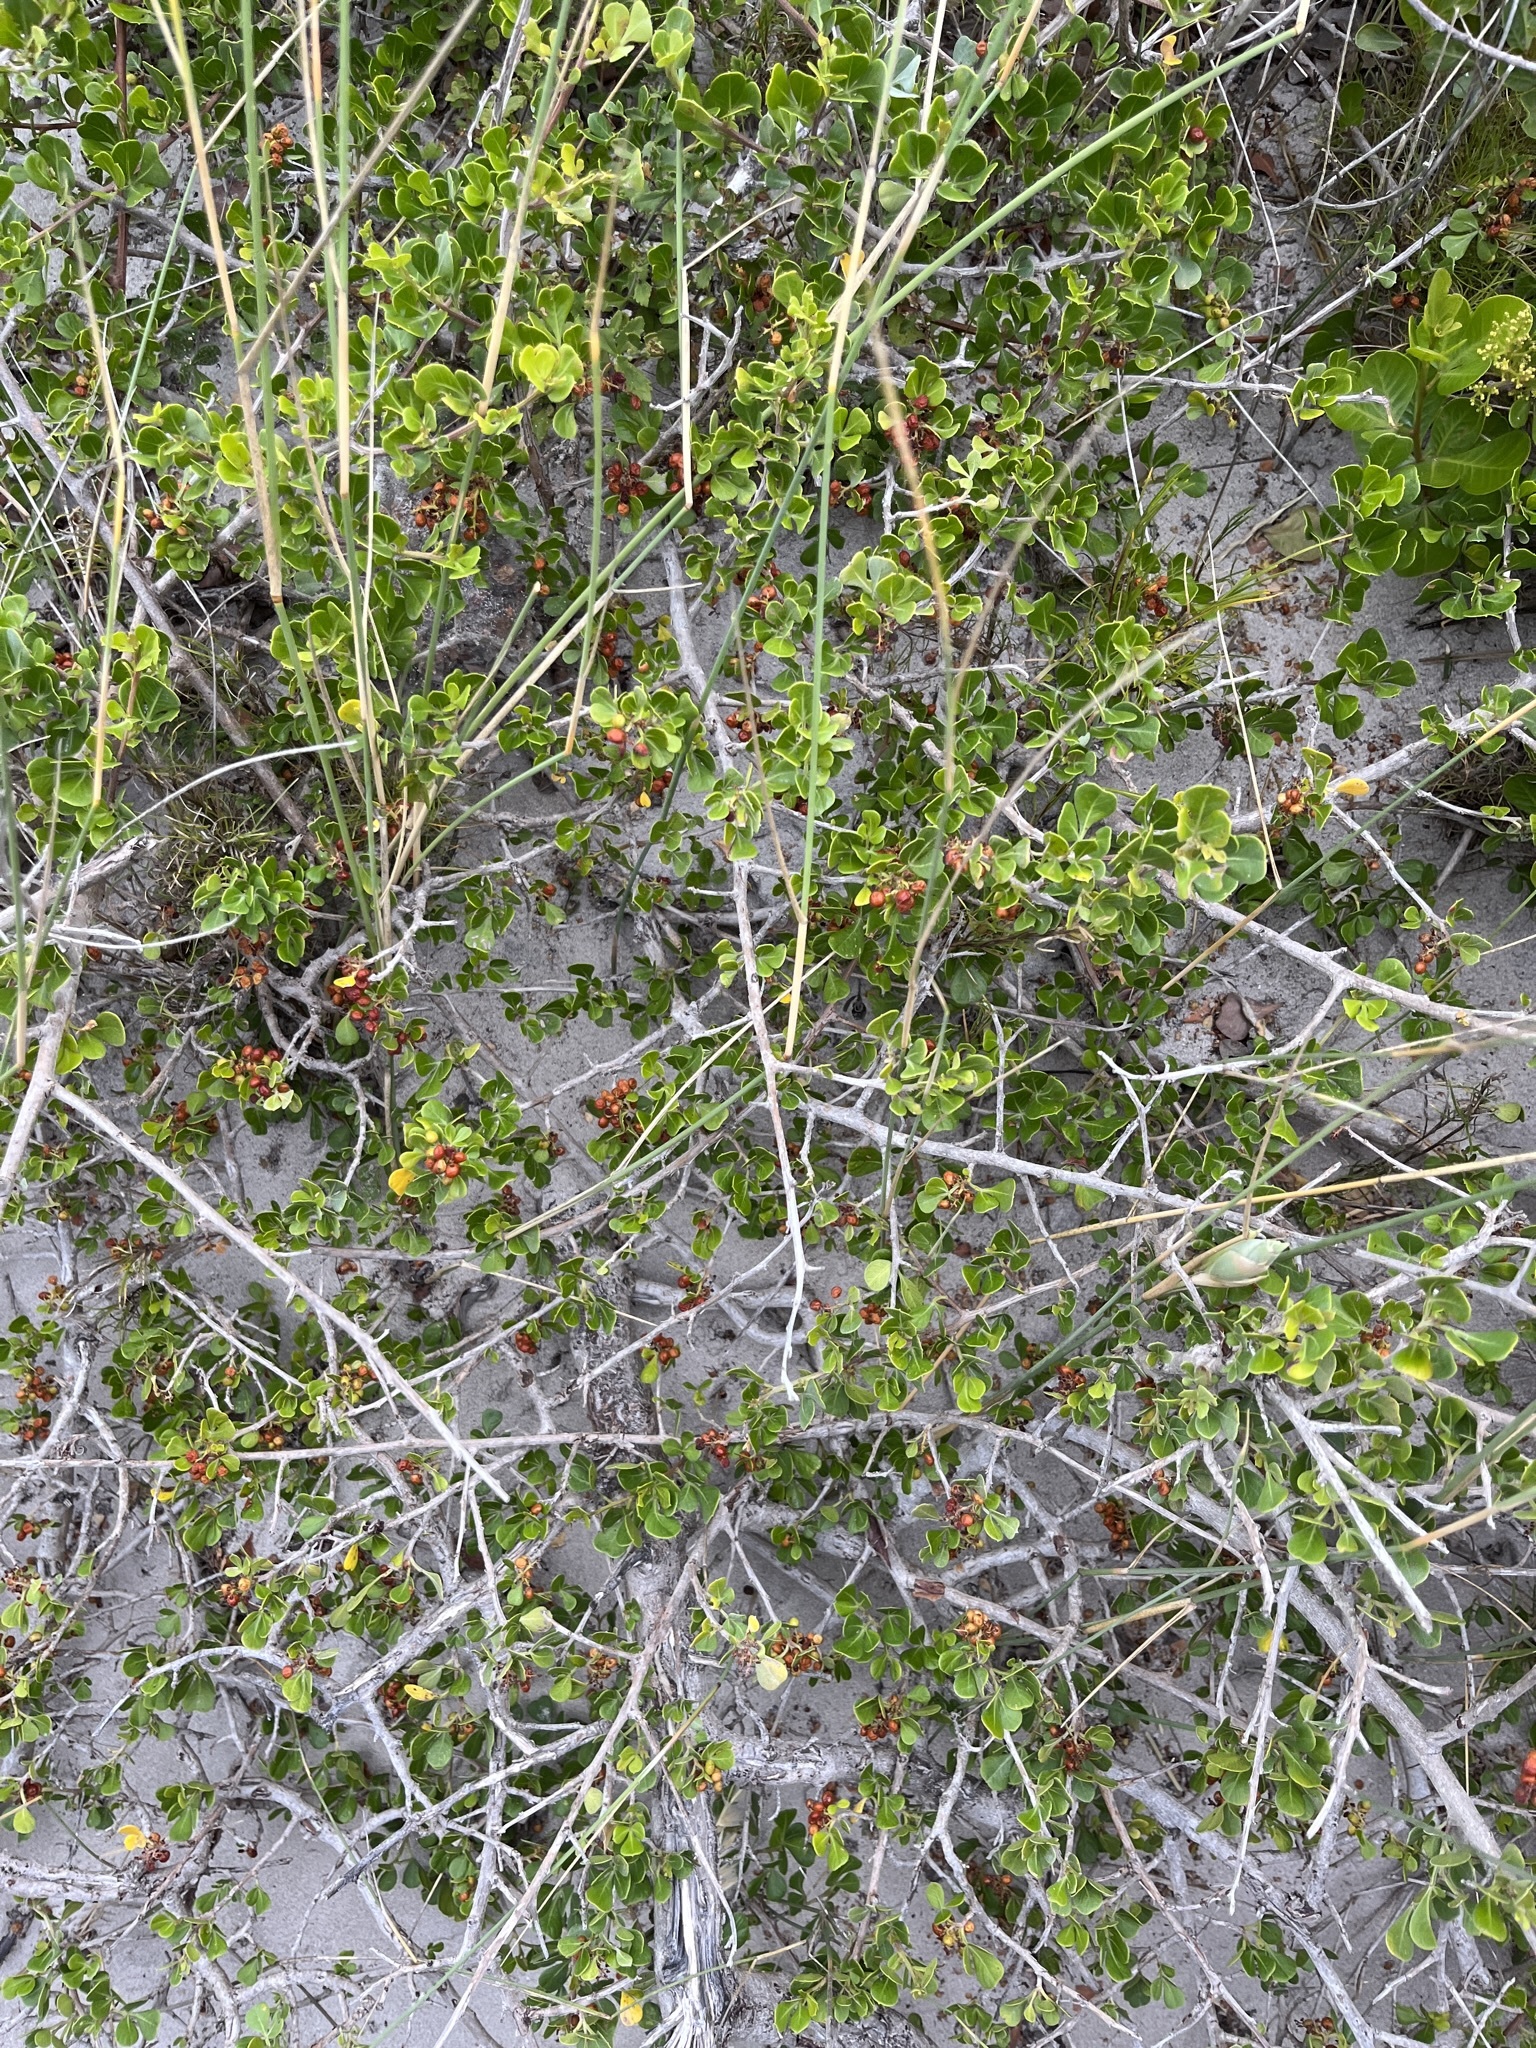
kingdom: Plantae
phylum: Tracheophyta
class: Magnoliopsida
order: Sapindales
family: Anacardiaceae
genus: Searsia
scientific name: Searsia glauca
